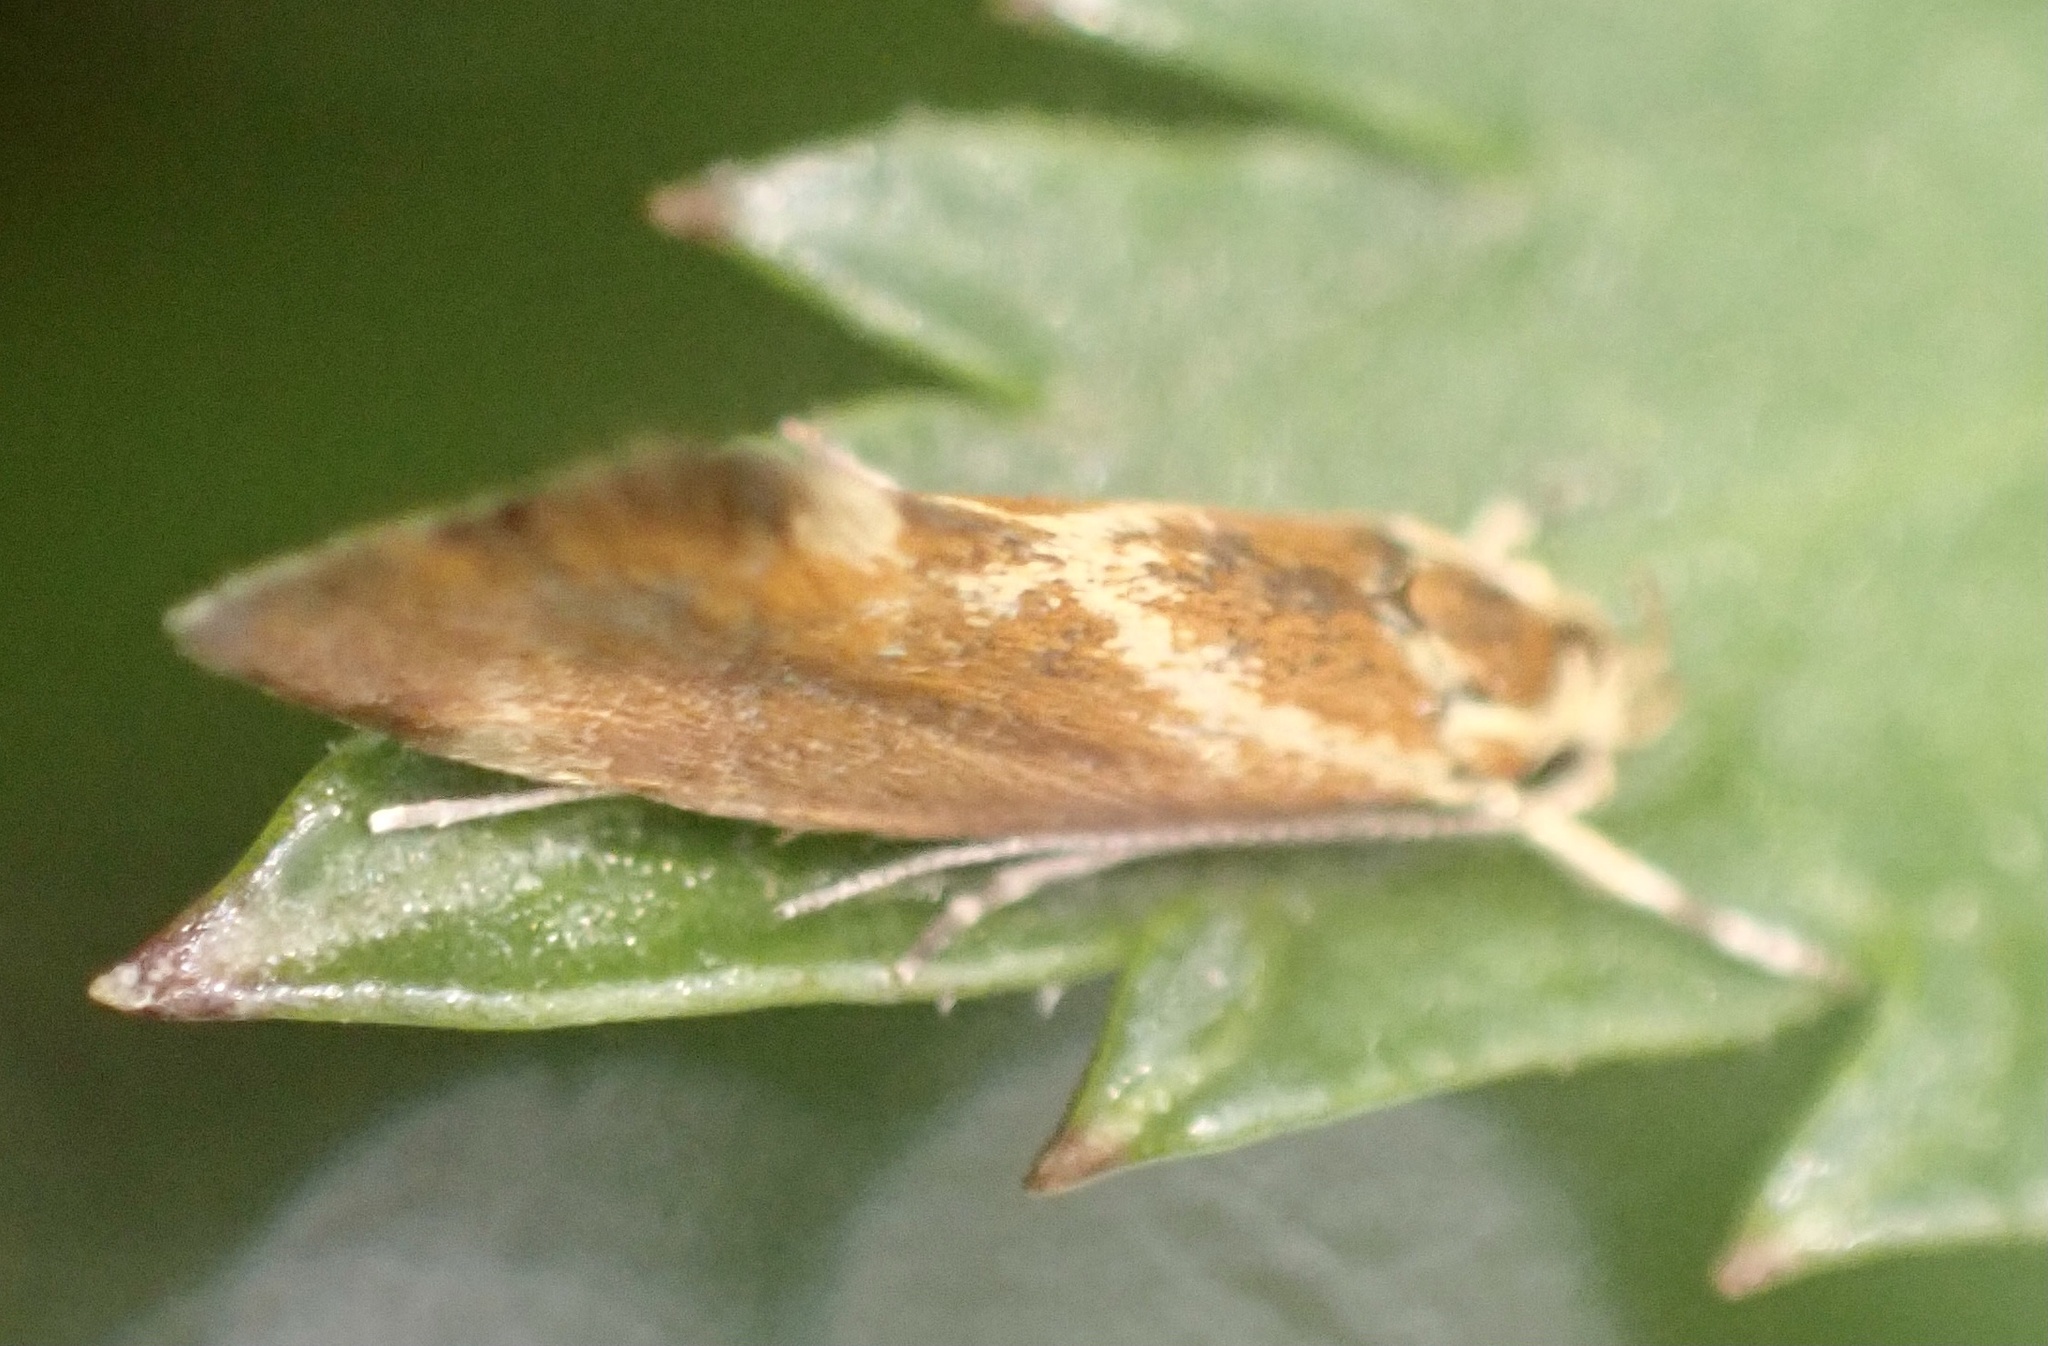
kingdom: Animalia
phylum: Arthropoda
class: Insecta
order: Lepidoptera
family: Oecophoridae
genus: Borkhausenia
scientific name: Borkhausenia italica
